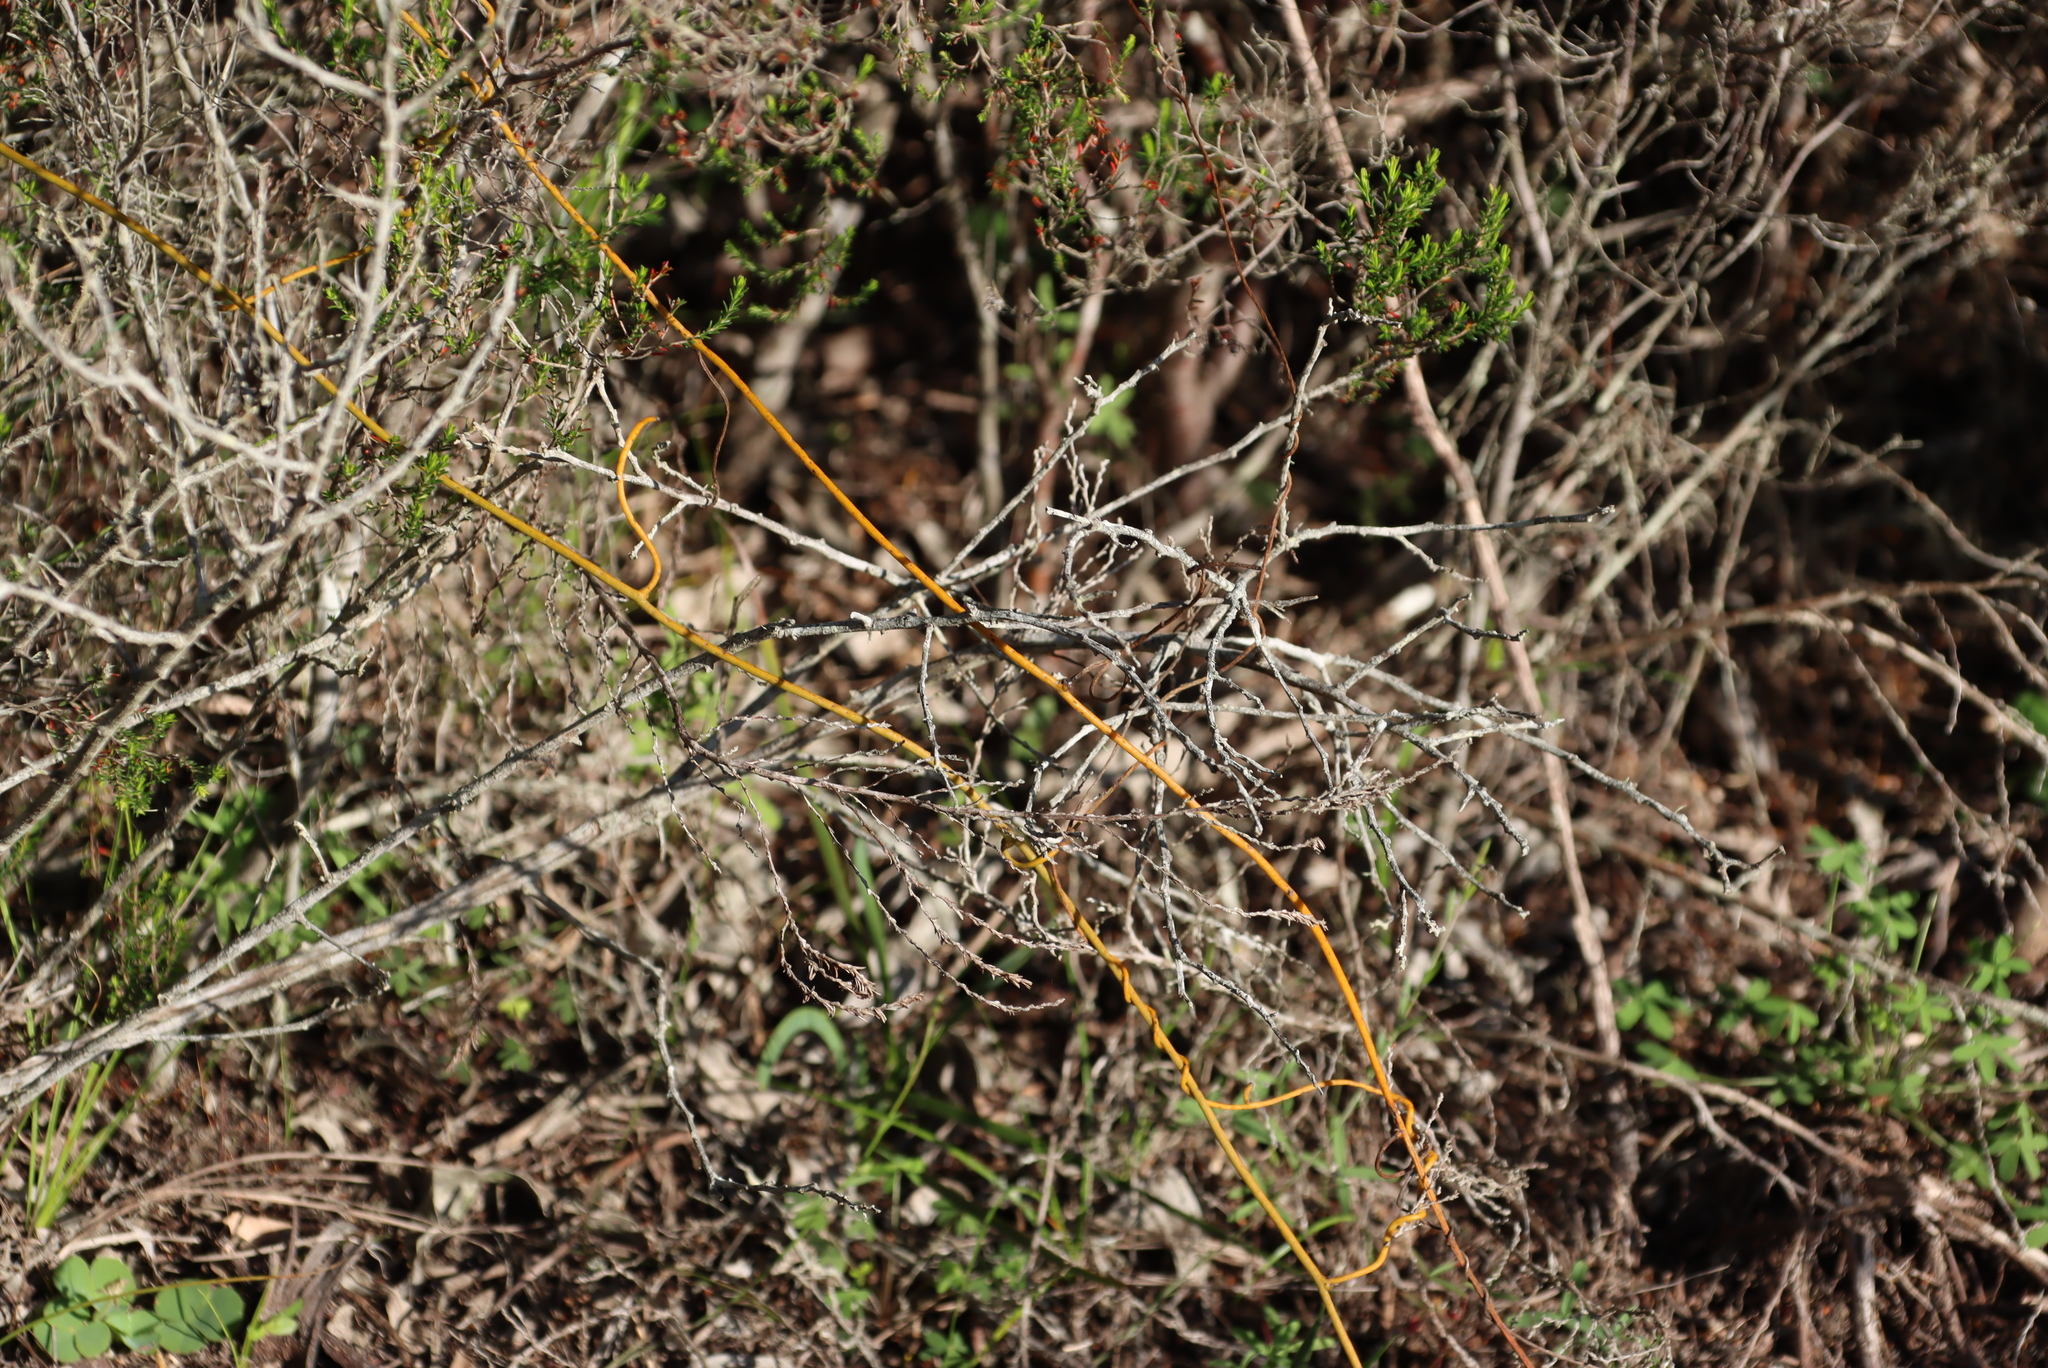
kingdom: Plantae
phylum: Tracheophyta
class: Magnoliopsida
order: Laurales
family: Lauraceae
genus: Cassytha
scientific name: Cassytha ciliolata
